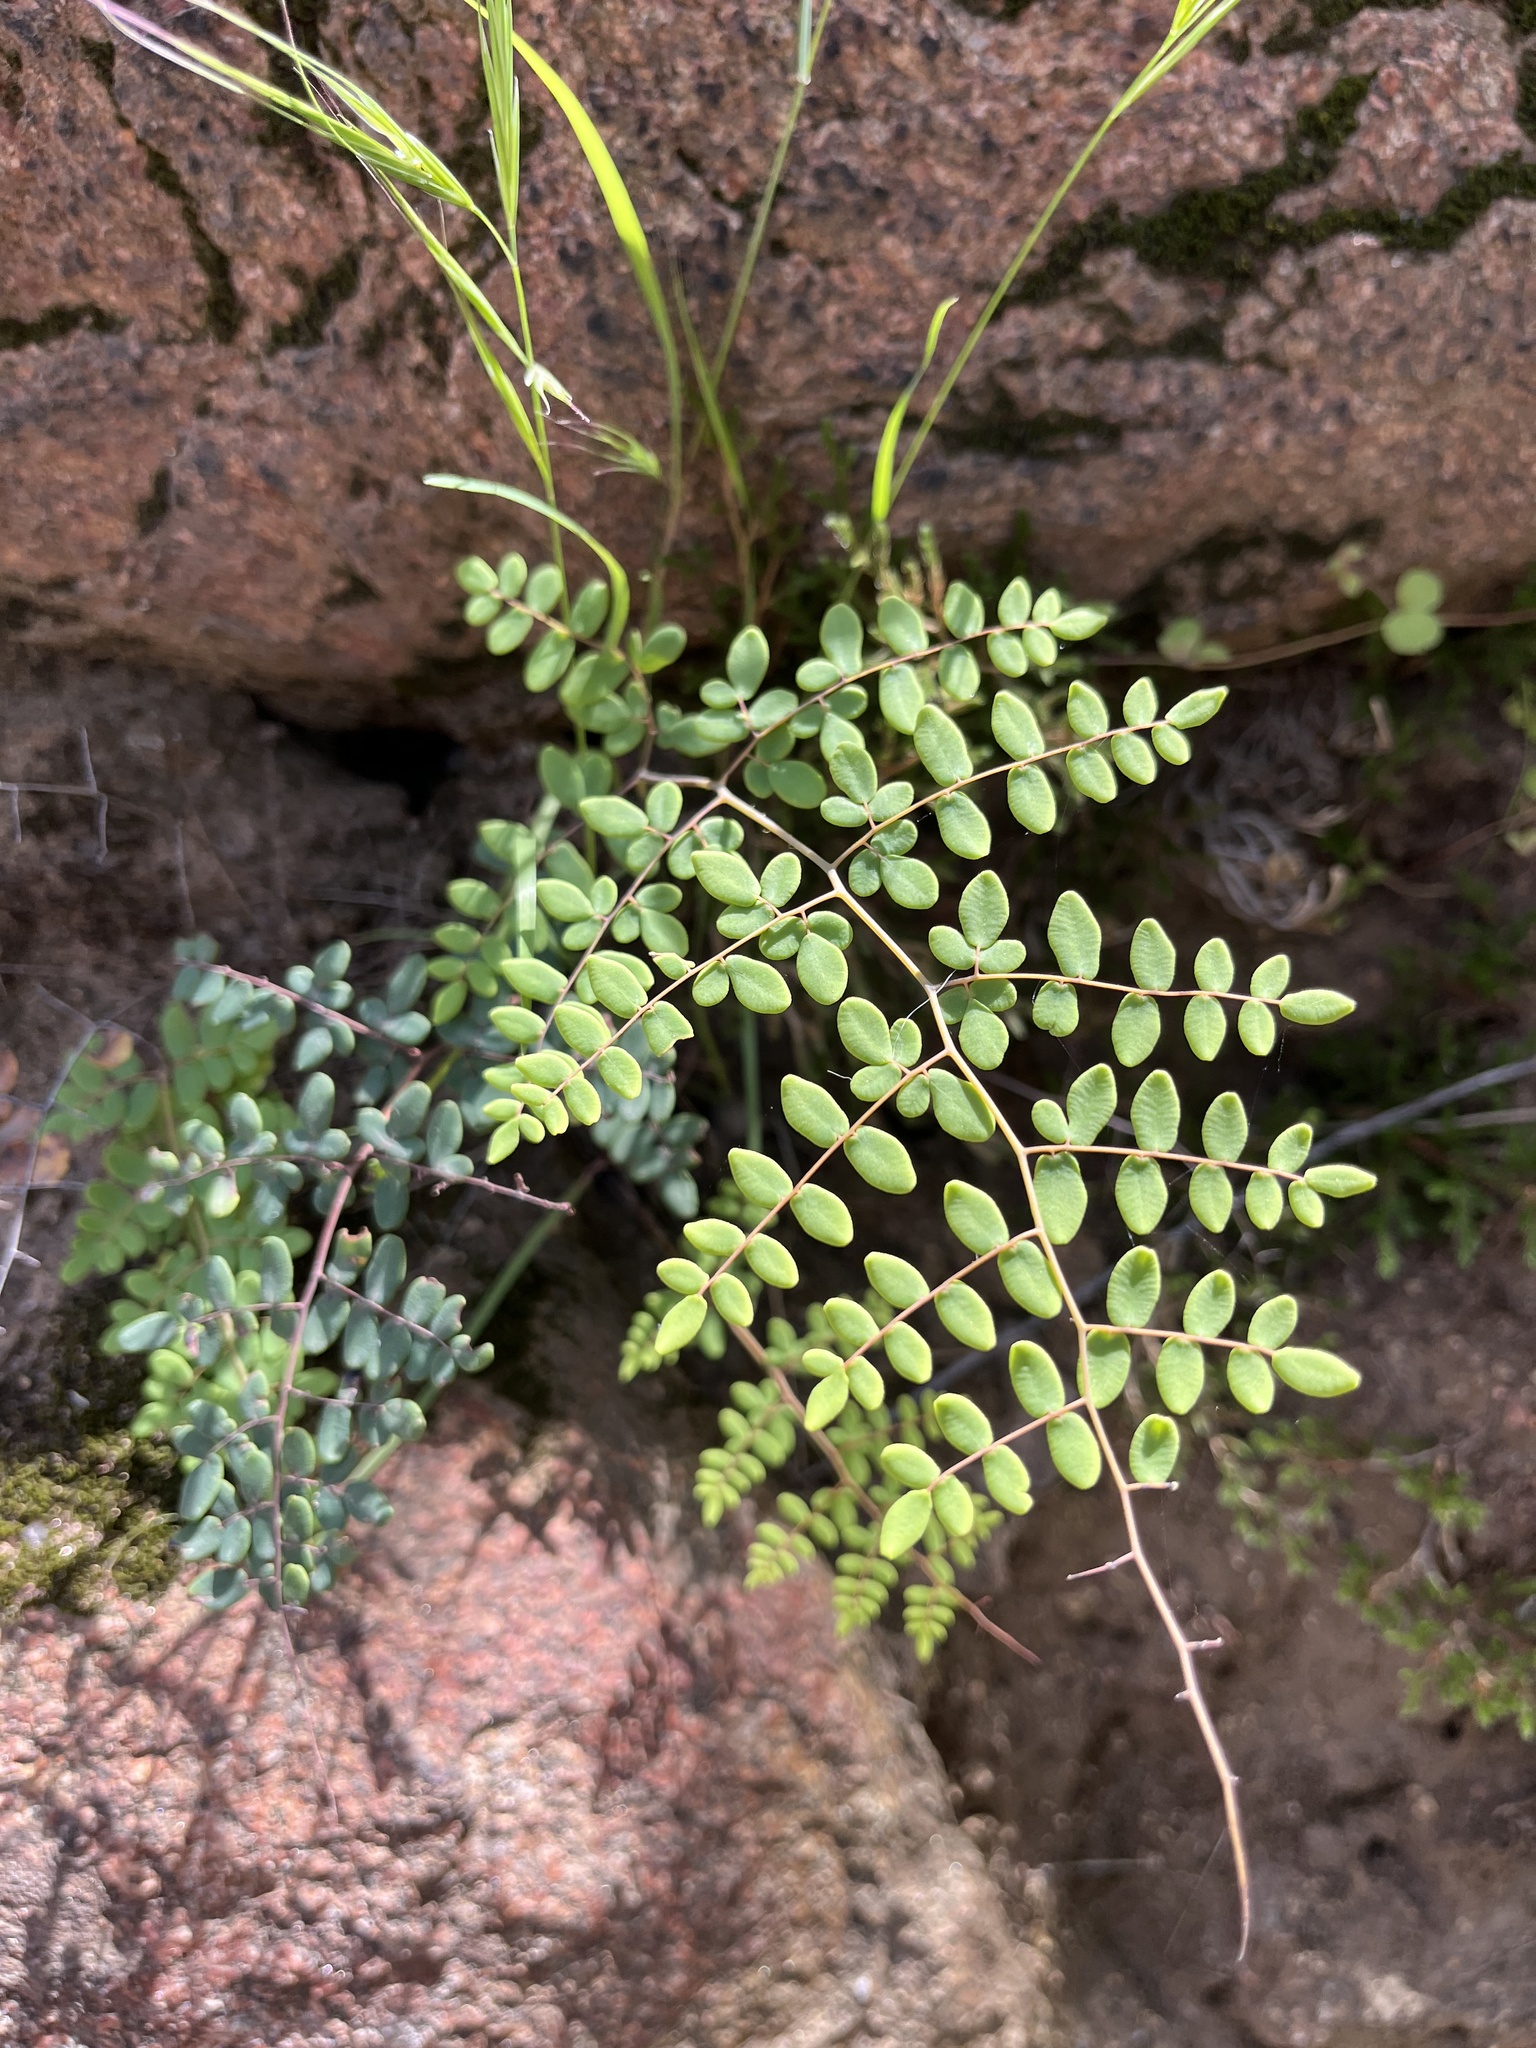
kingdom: Plantae
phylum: Tracheophyta
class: Polypodiopsida
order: Polypodiales
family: Pteridaceae
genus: Pellaea
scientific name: Pellaea andromedifolia
